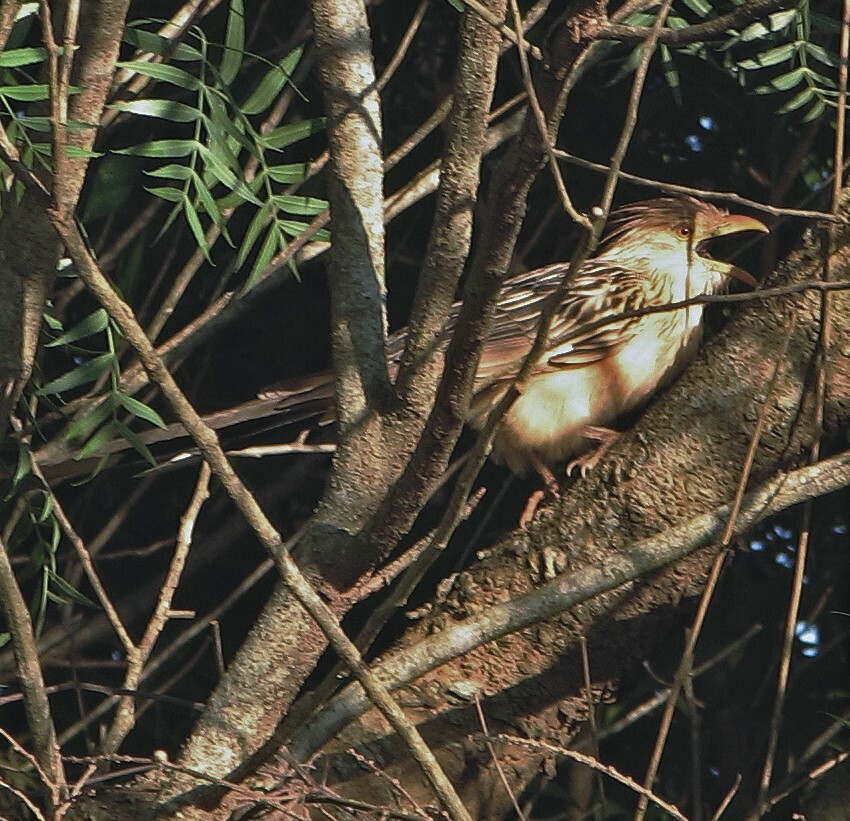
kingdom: Animalia
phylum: Chordata
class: Aves
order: Cuculiformes
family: Cuculidae
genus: Guira
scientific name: Guira guira
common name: Guira cuckoo
